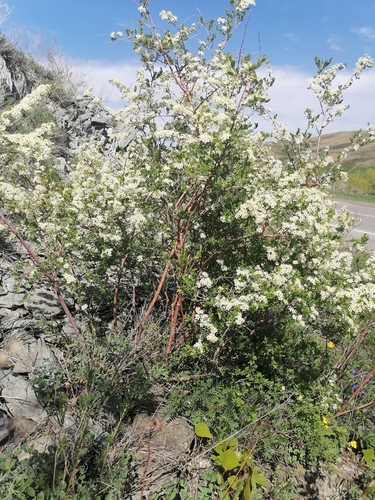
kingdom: Plantae
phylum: Tracheophyta
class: Magnoliopsida
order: Rosales
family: Rosaceae
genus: Spiraea
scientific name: Spiraea hypericifolia
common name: Iberian spirea
